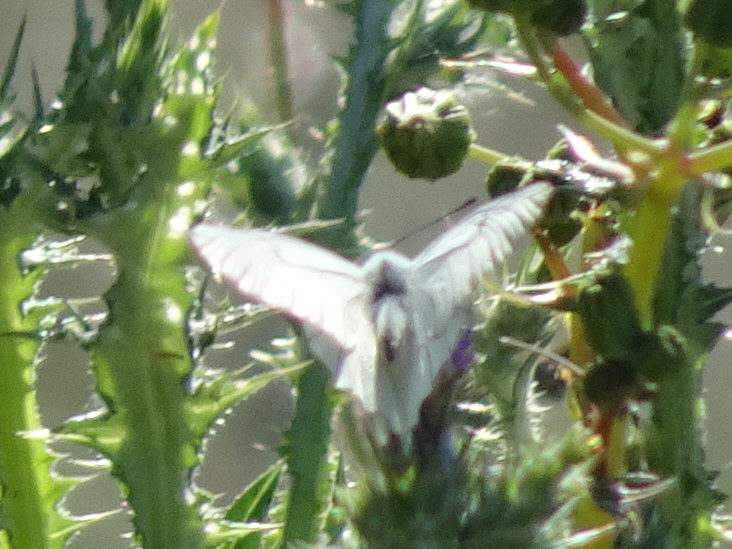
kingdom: Animalia
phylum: Arthropoda
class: Insecta
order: Lepidoptera
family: Pieridae
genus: Aporia
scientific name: Aporia crataegi
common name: Black-veined white
